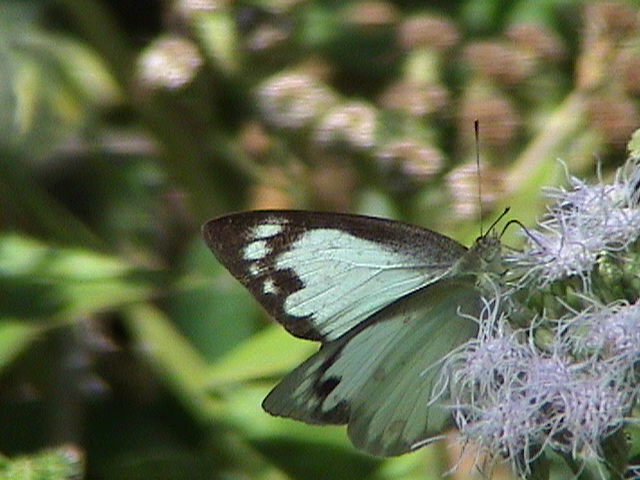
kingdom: Animalia
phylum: Arthropoda
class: Insecta
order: Lepidoptera
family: Pieridae
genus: Appias
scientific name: Appias albina
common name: Common albatross
